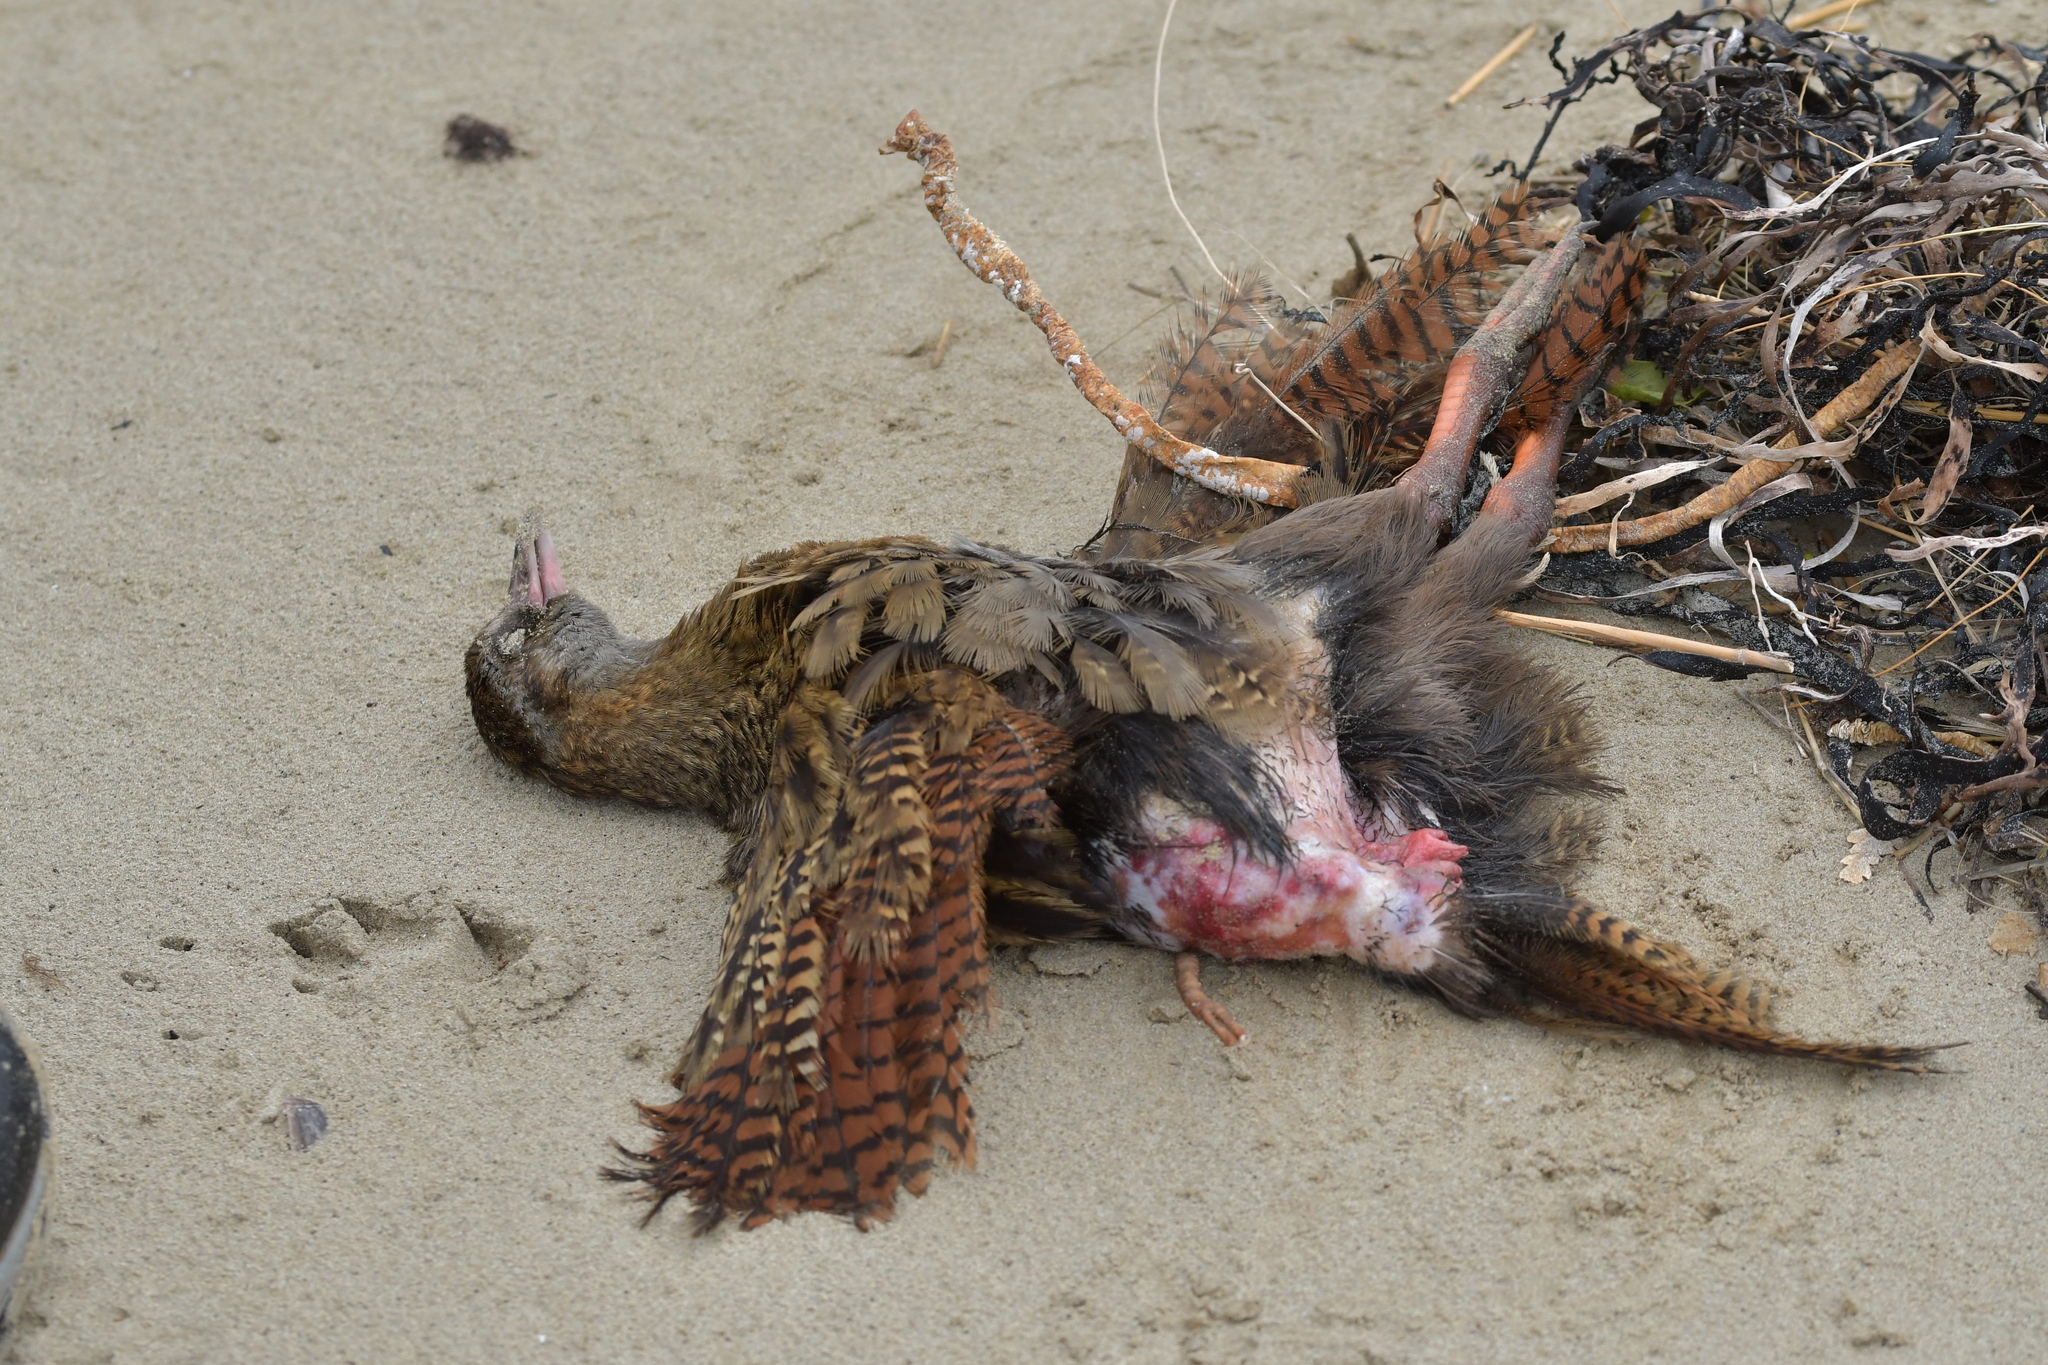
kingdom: Animalia
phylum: Chordata
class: Aves
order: Gruiformes
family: Rallidae
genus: Gallirallus
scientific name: Gallirallus australis
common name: Weka
